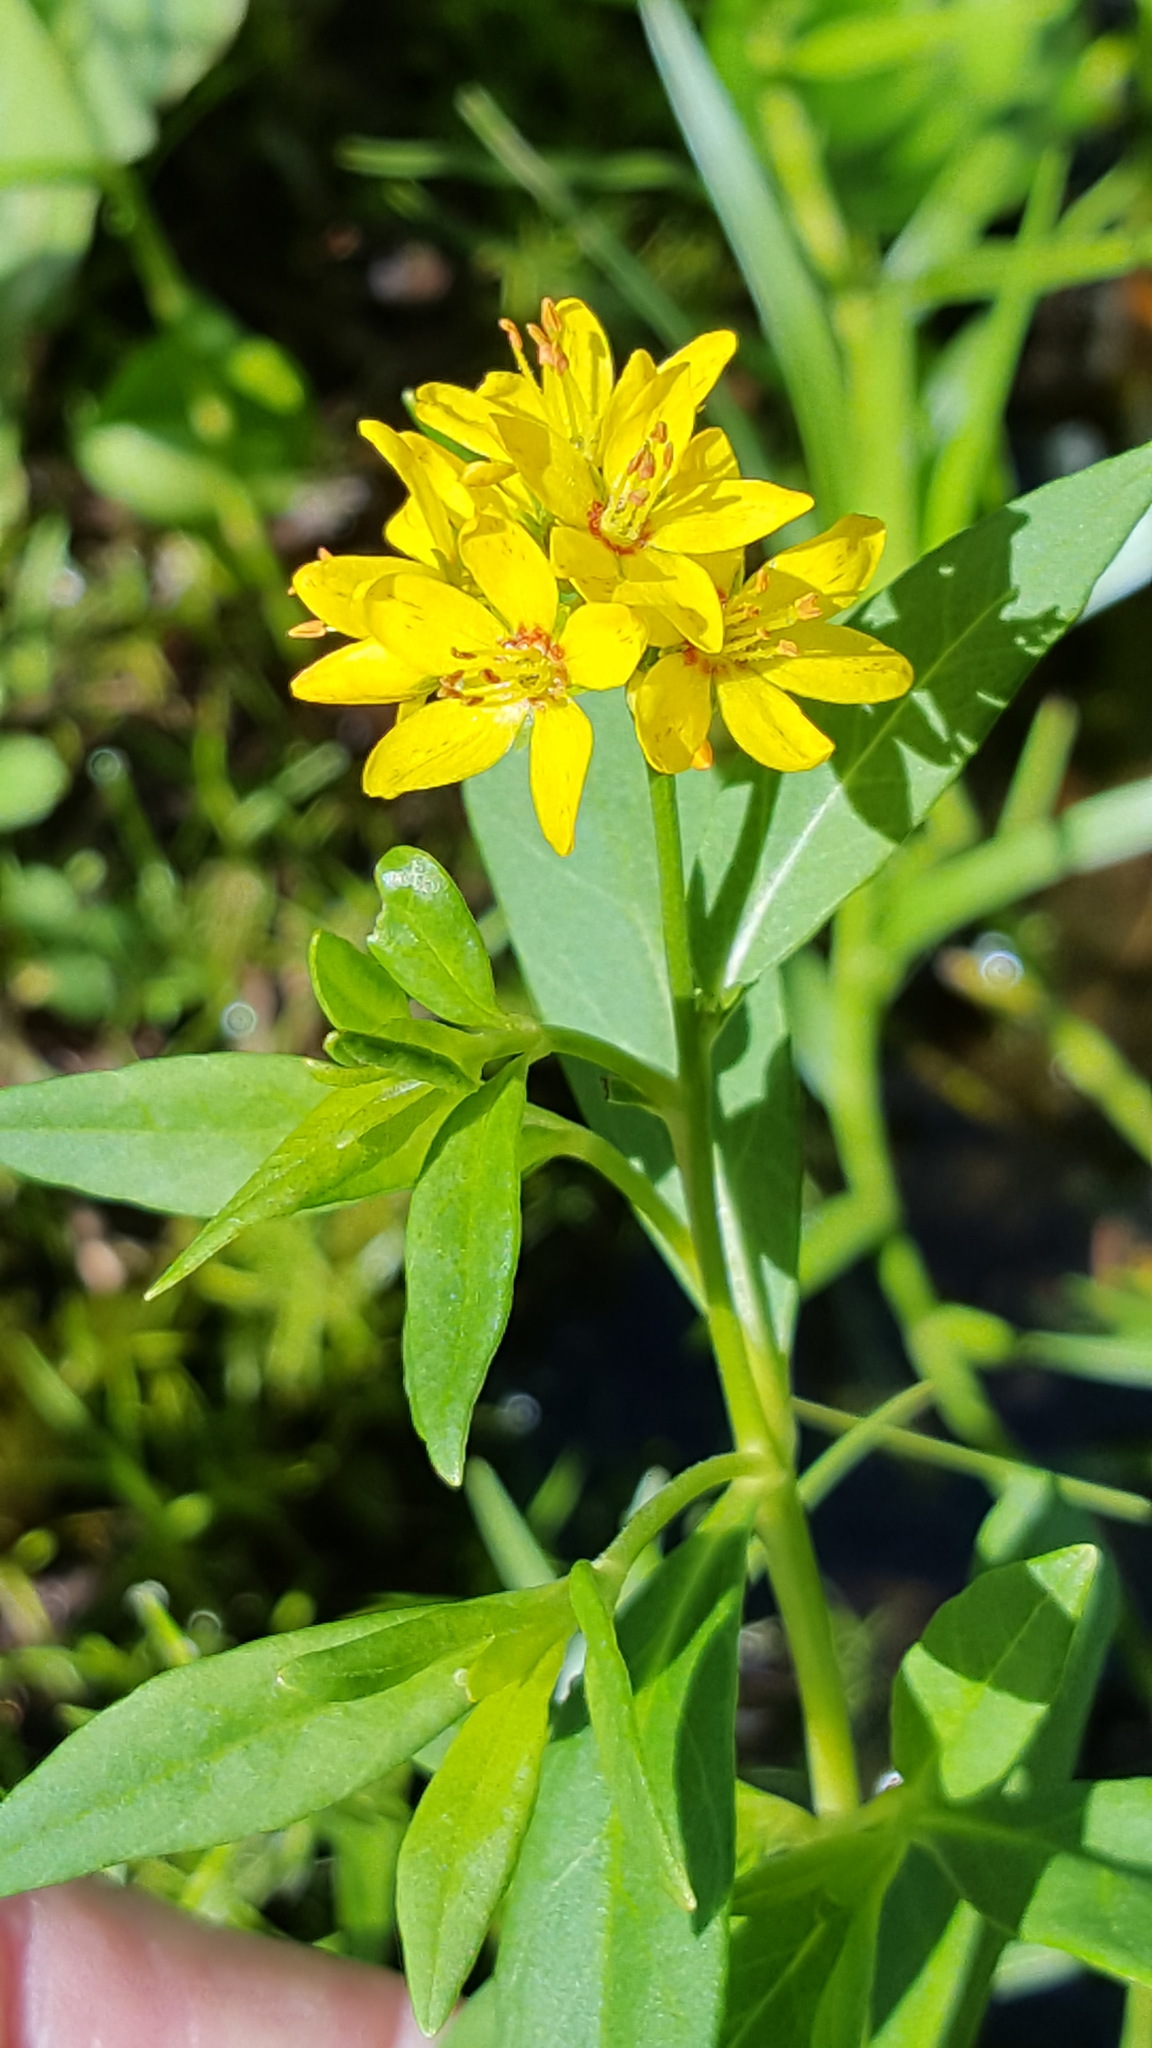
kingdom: Plantae
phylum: Tracheophyta
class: Magnoliopsida
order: Ericales
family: Primulaceae
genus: Lysimachia
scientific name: Lysimachia terrestris
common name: Lake loosestrife
